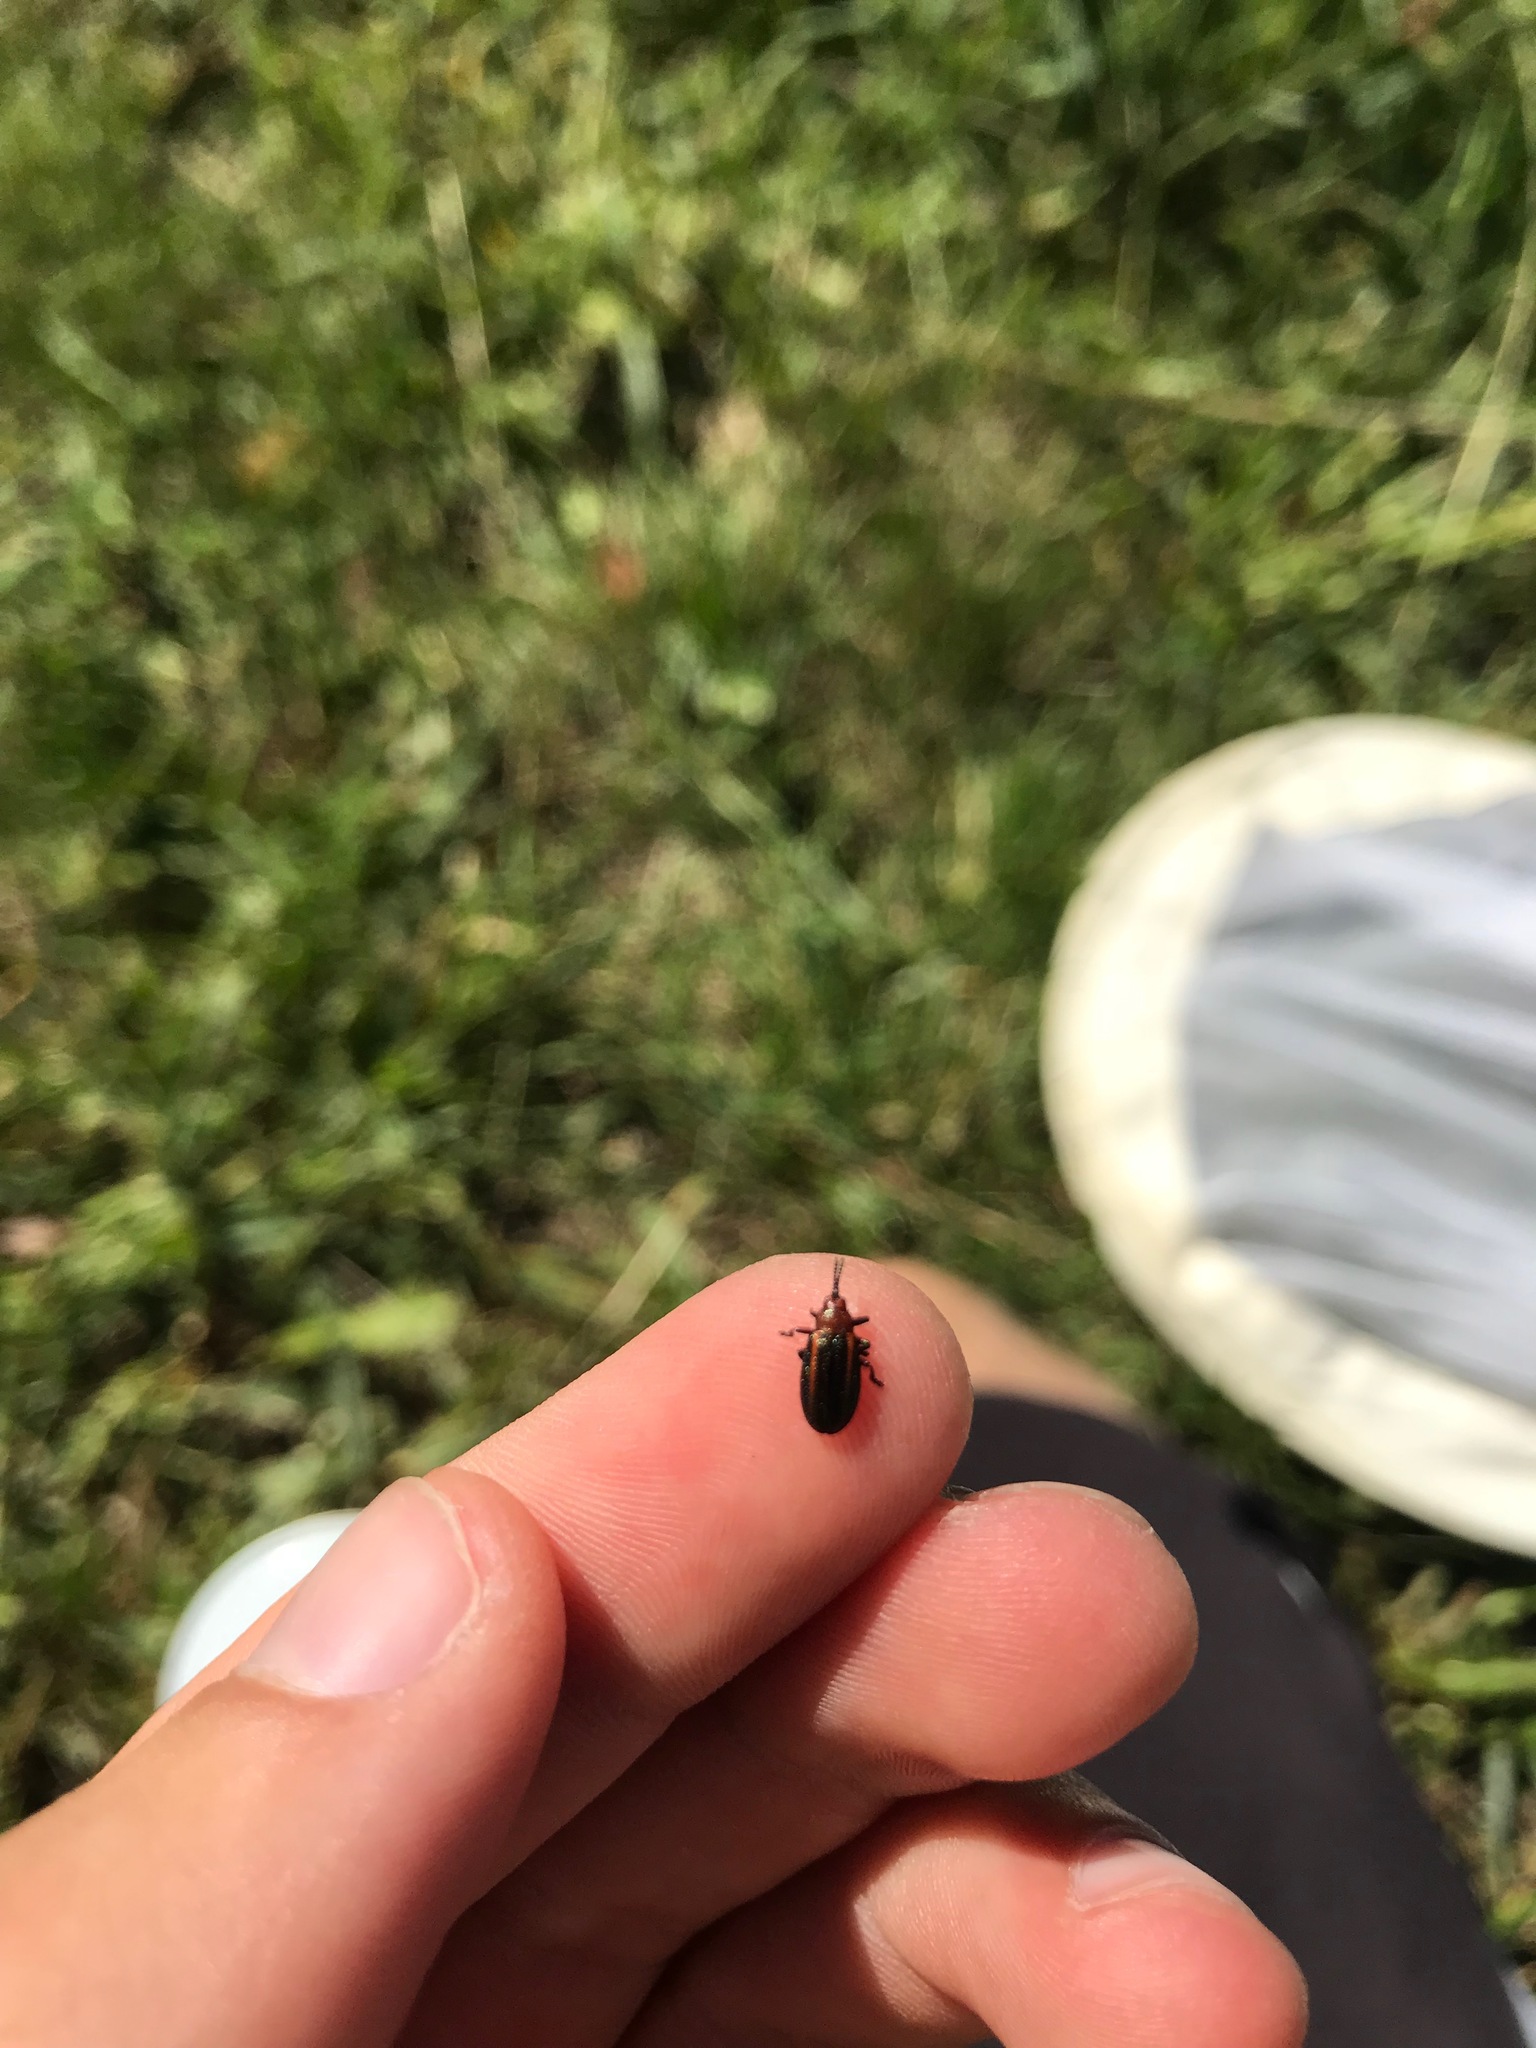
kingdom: Animalia
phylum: Arthropoda
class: Insecta
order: Coleoptera
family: Chrysomelidae
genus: Microrhopala
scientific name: Microrhopala vittata
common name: Goldenrod leaf miner beetle
